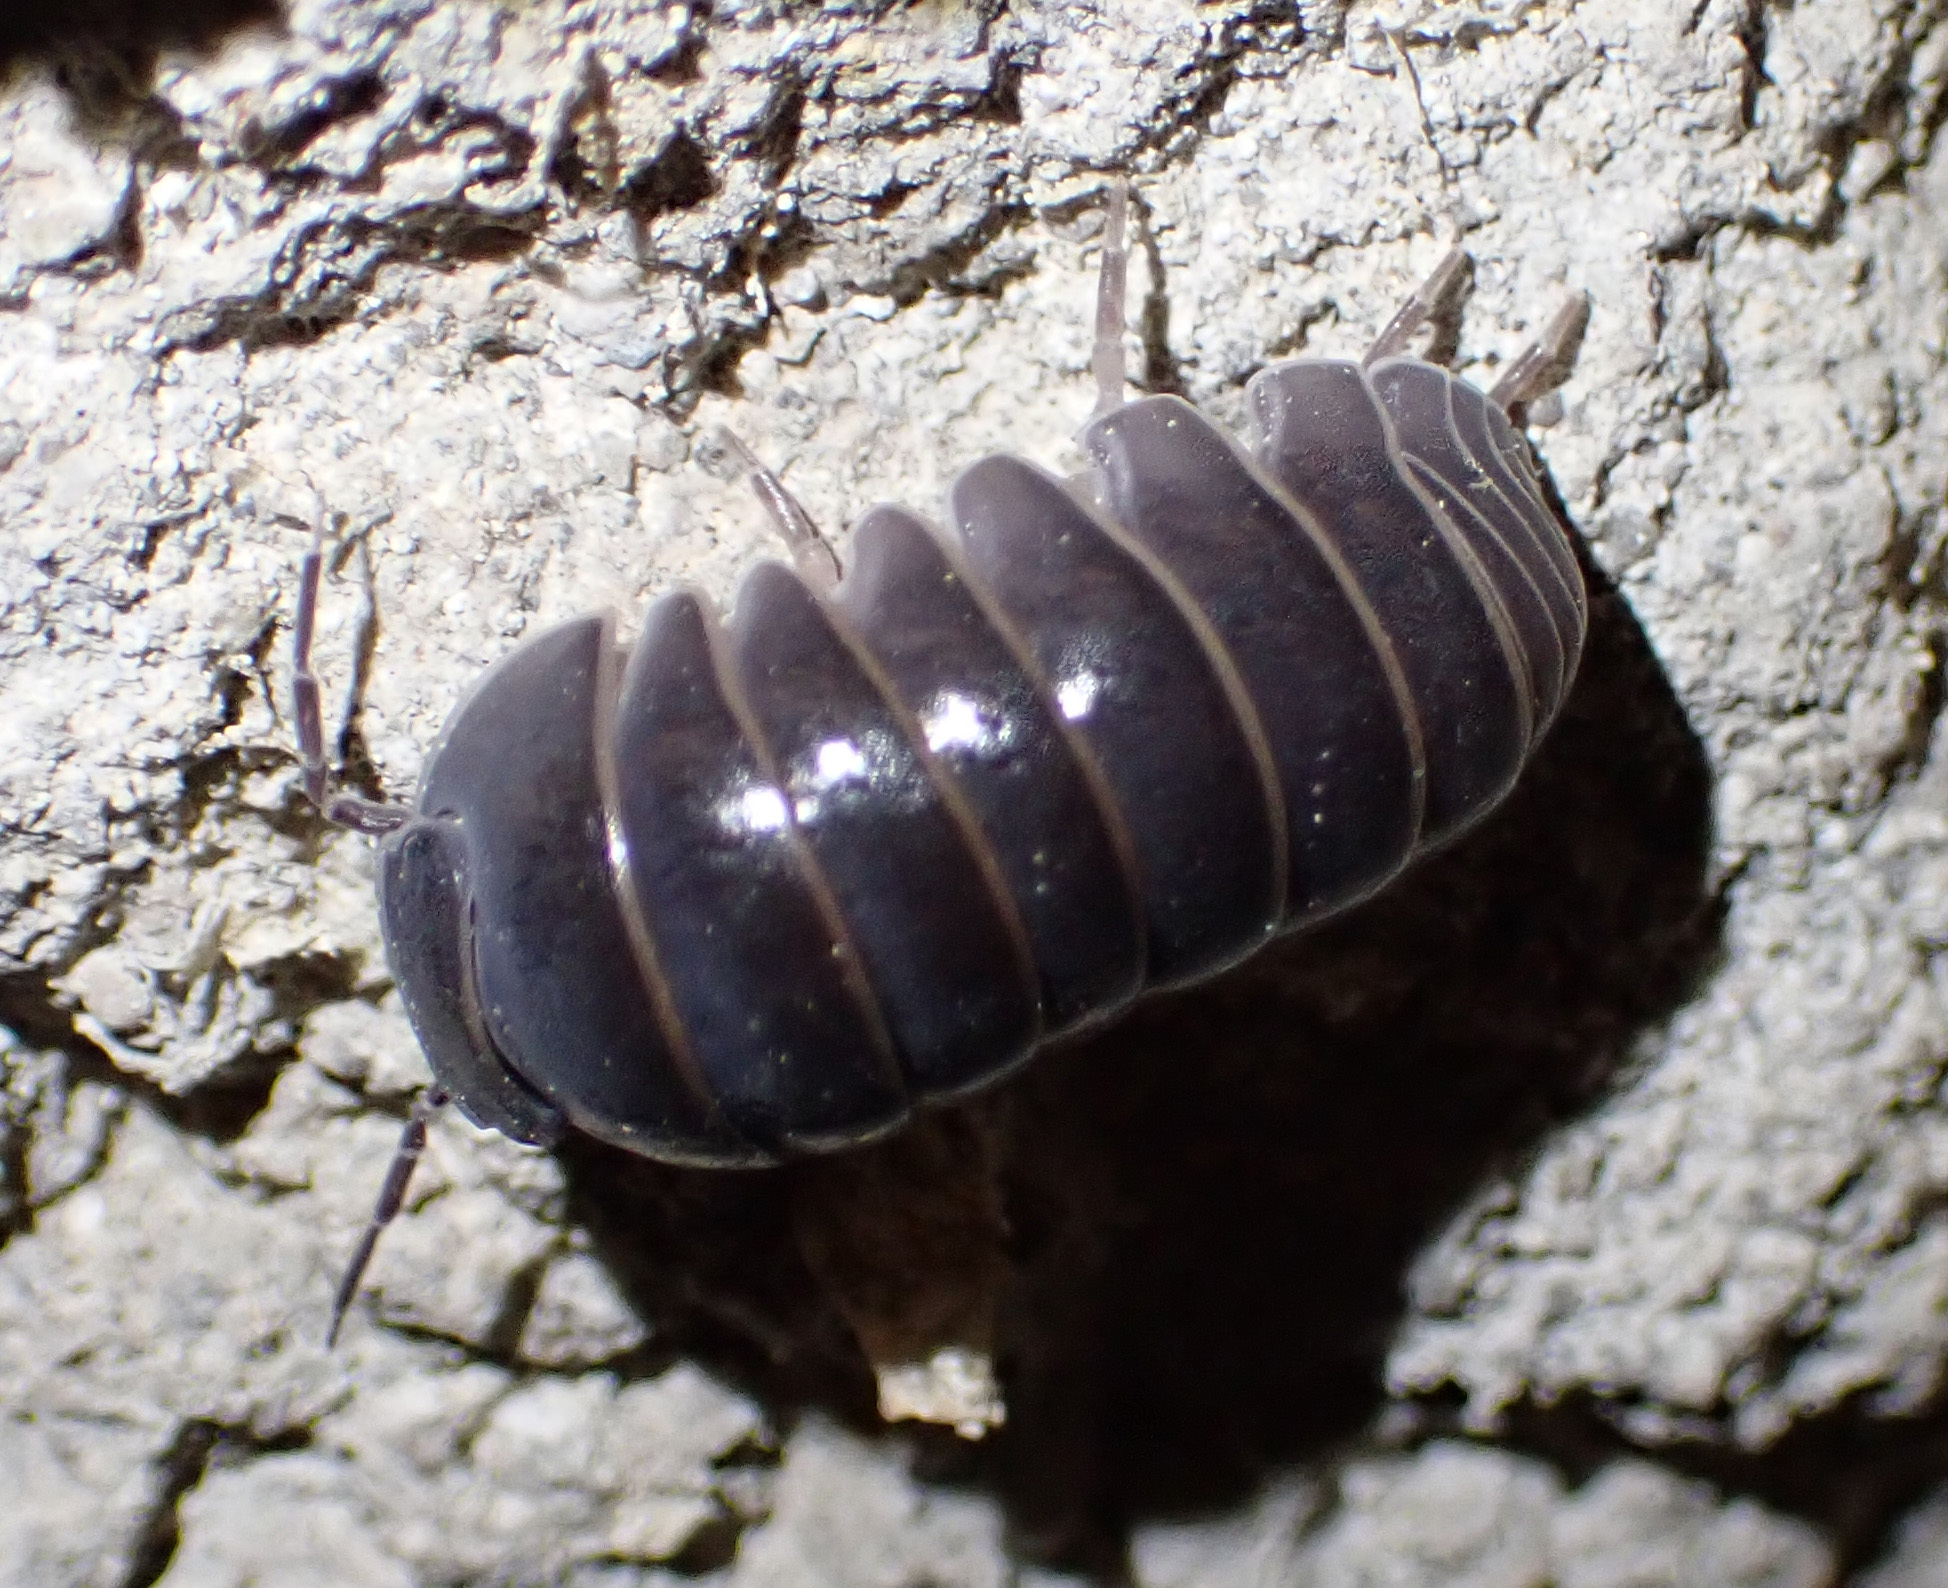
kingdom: Animalia
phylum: Arthropoda
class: Malacostraca
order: Isopoda
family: Armadillidae
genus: Armadillo
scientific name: Armadillo officinalis
